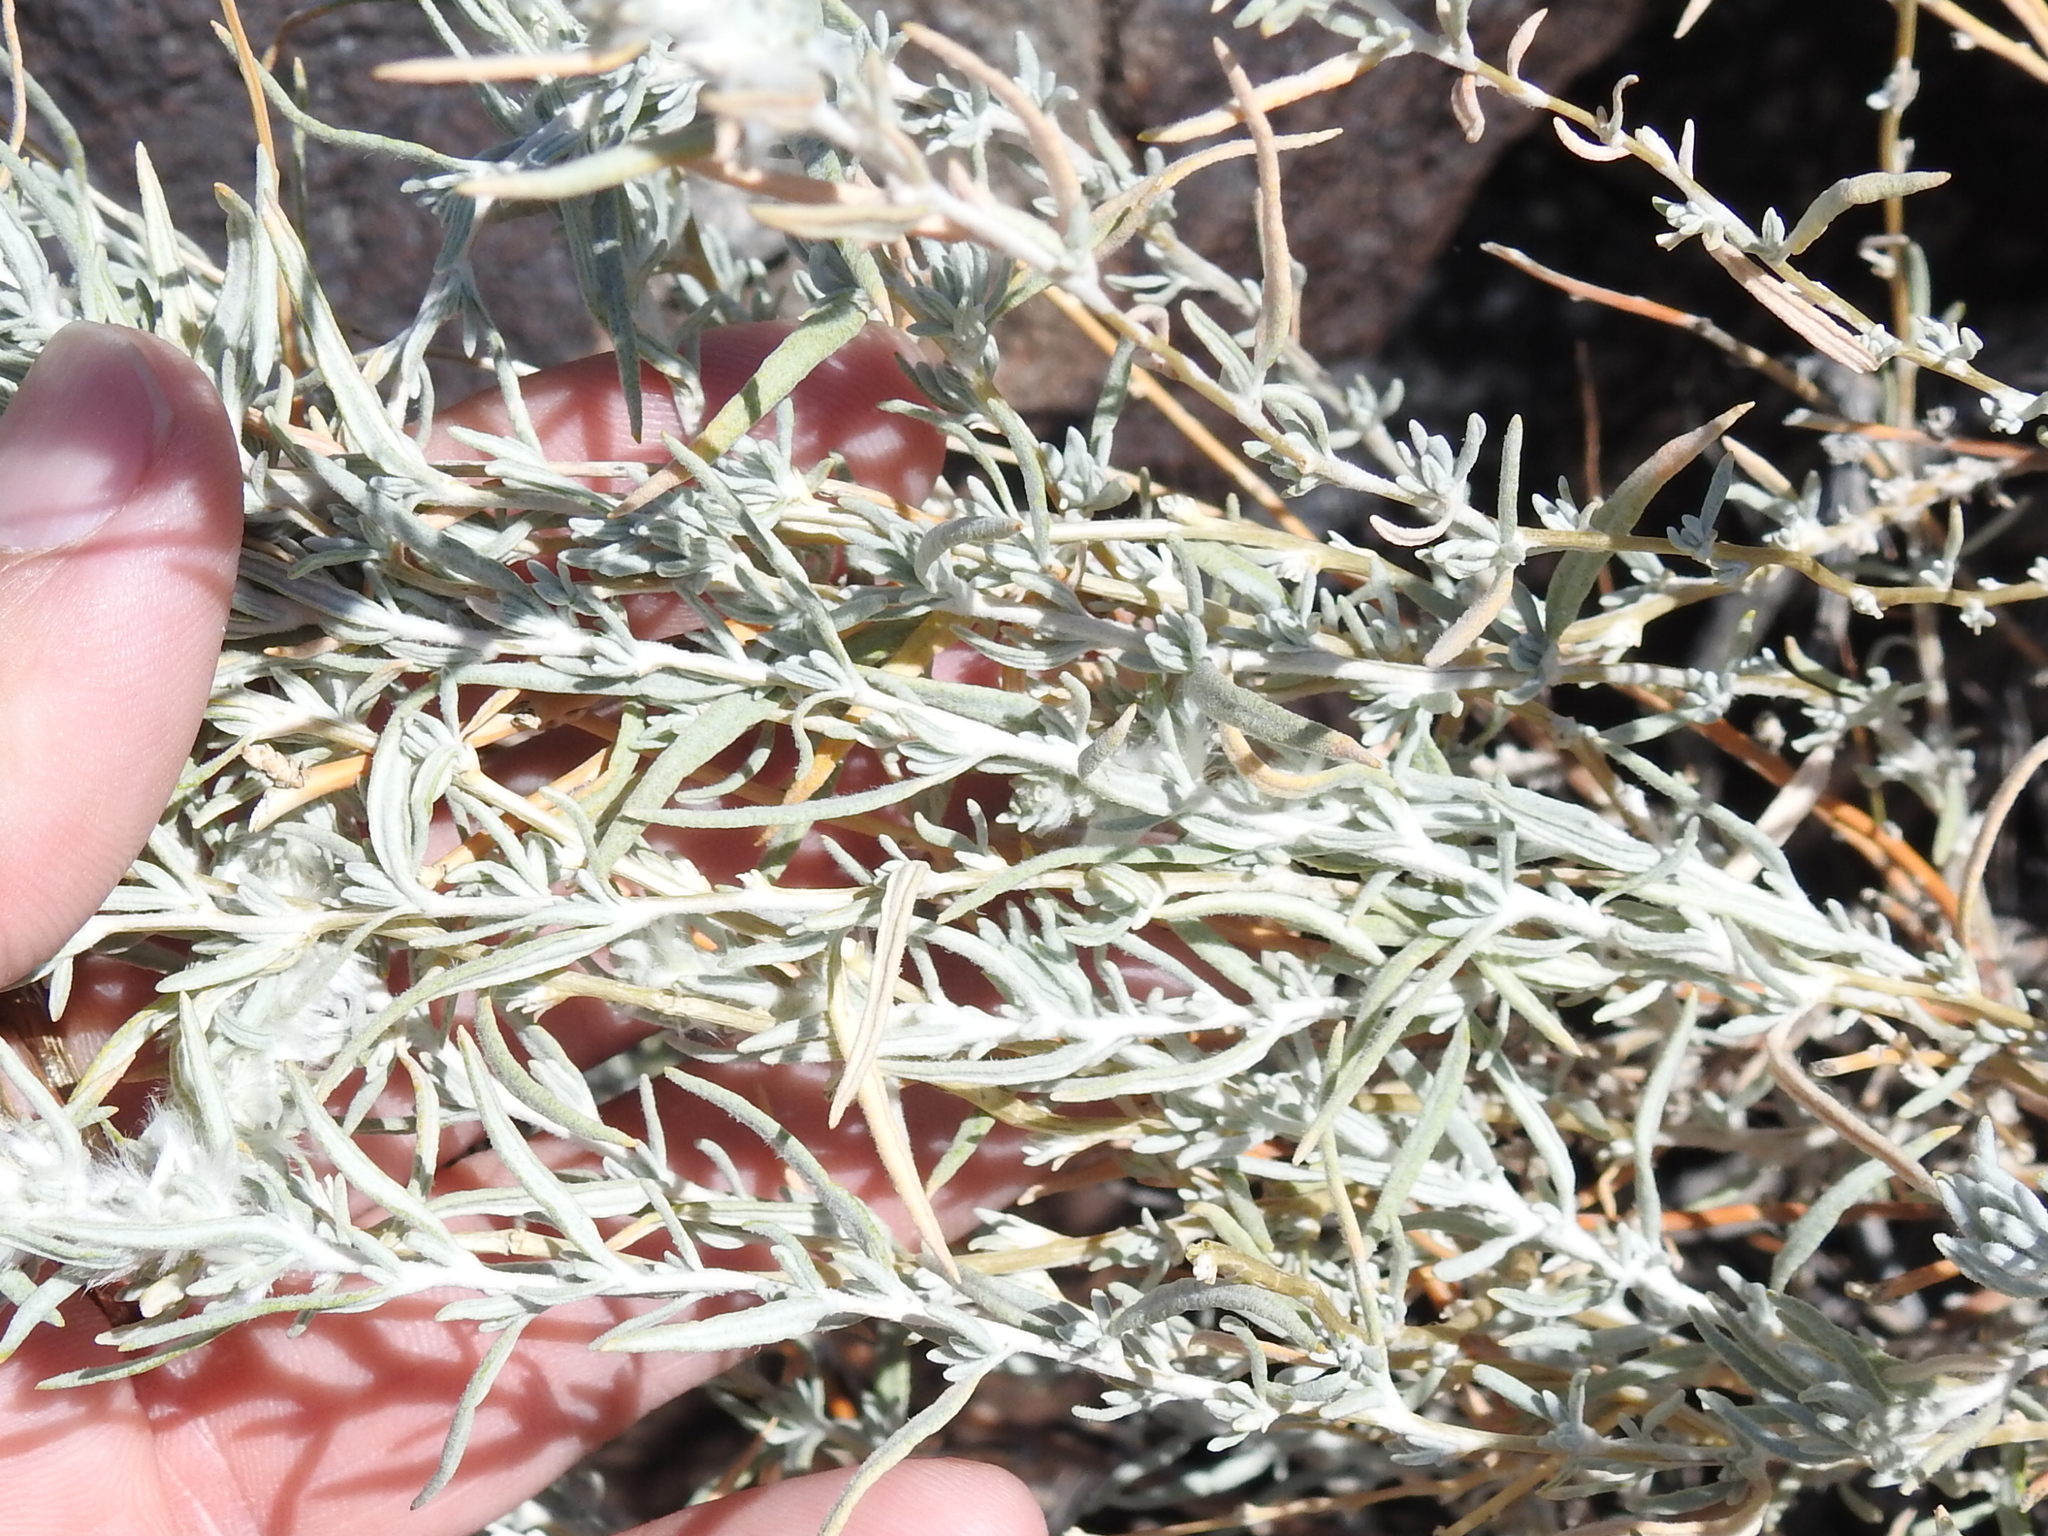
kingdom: Plantae
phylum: Tracheophyta
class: Magnoliopsida
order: Caryophyllales
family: Amaranthaceae
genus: Krascheninnikovia
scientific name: Krascheninnikovia lanata
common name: Winterfat
